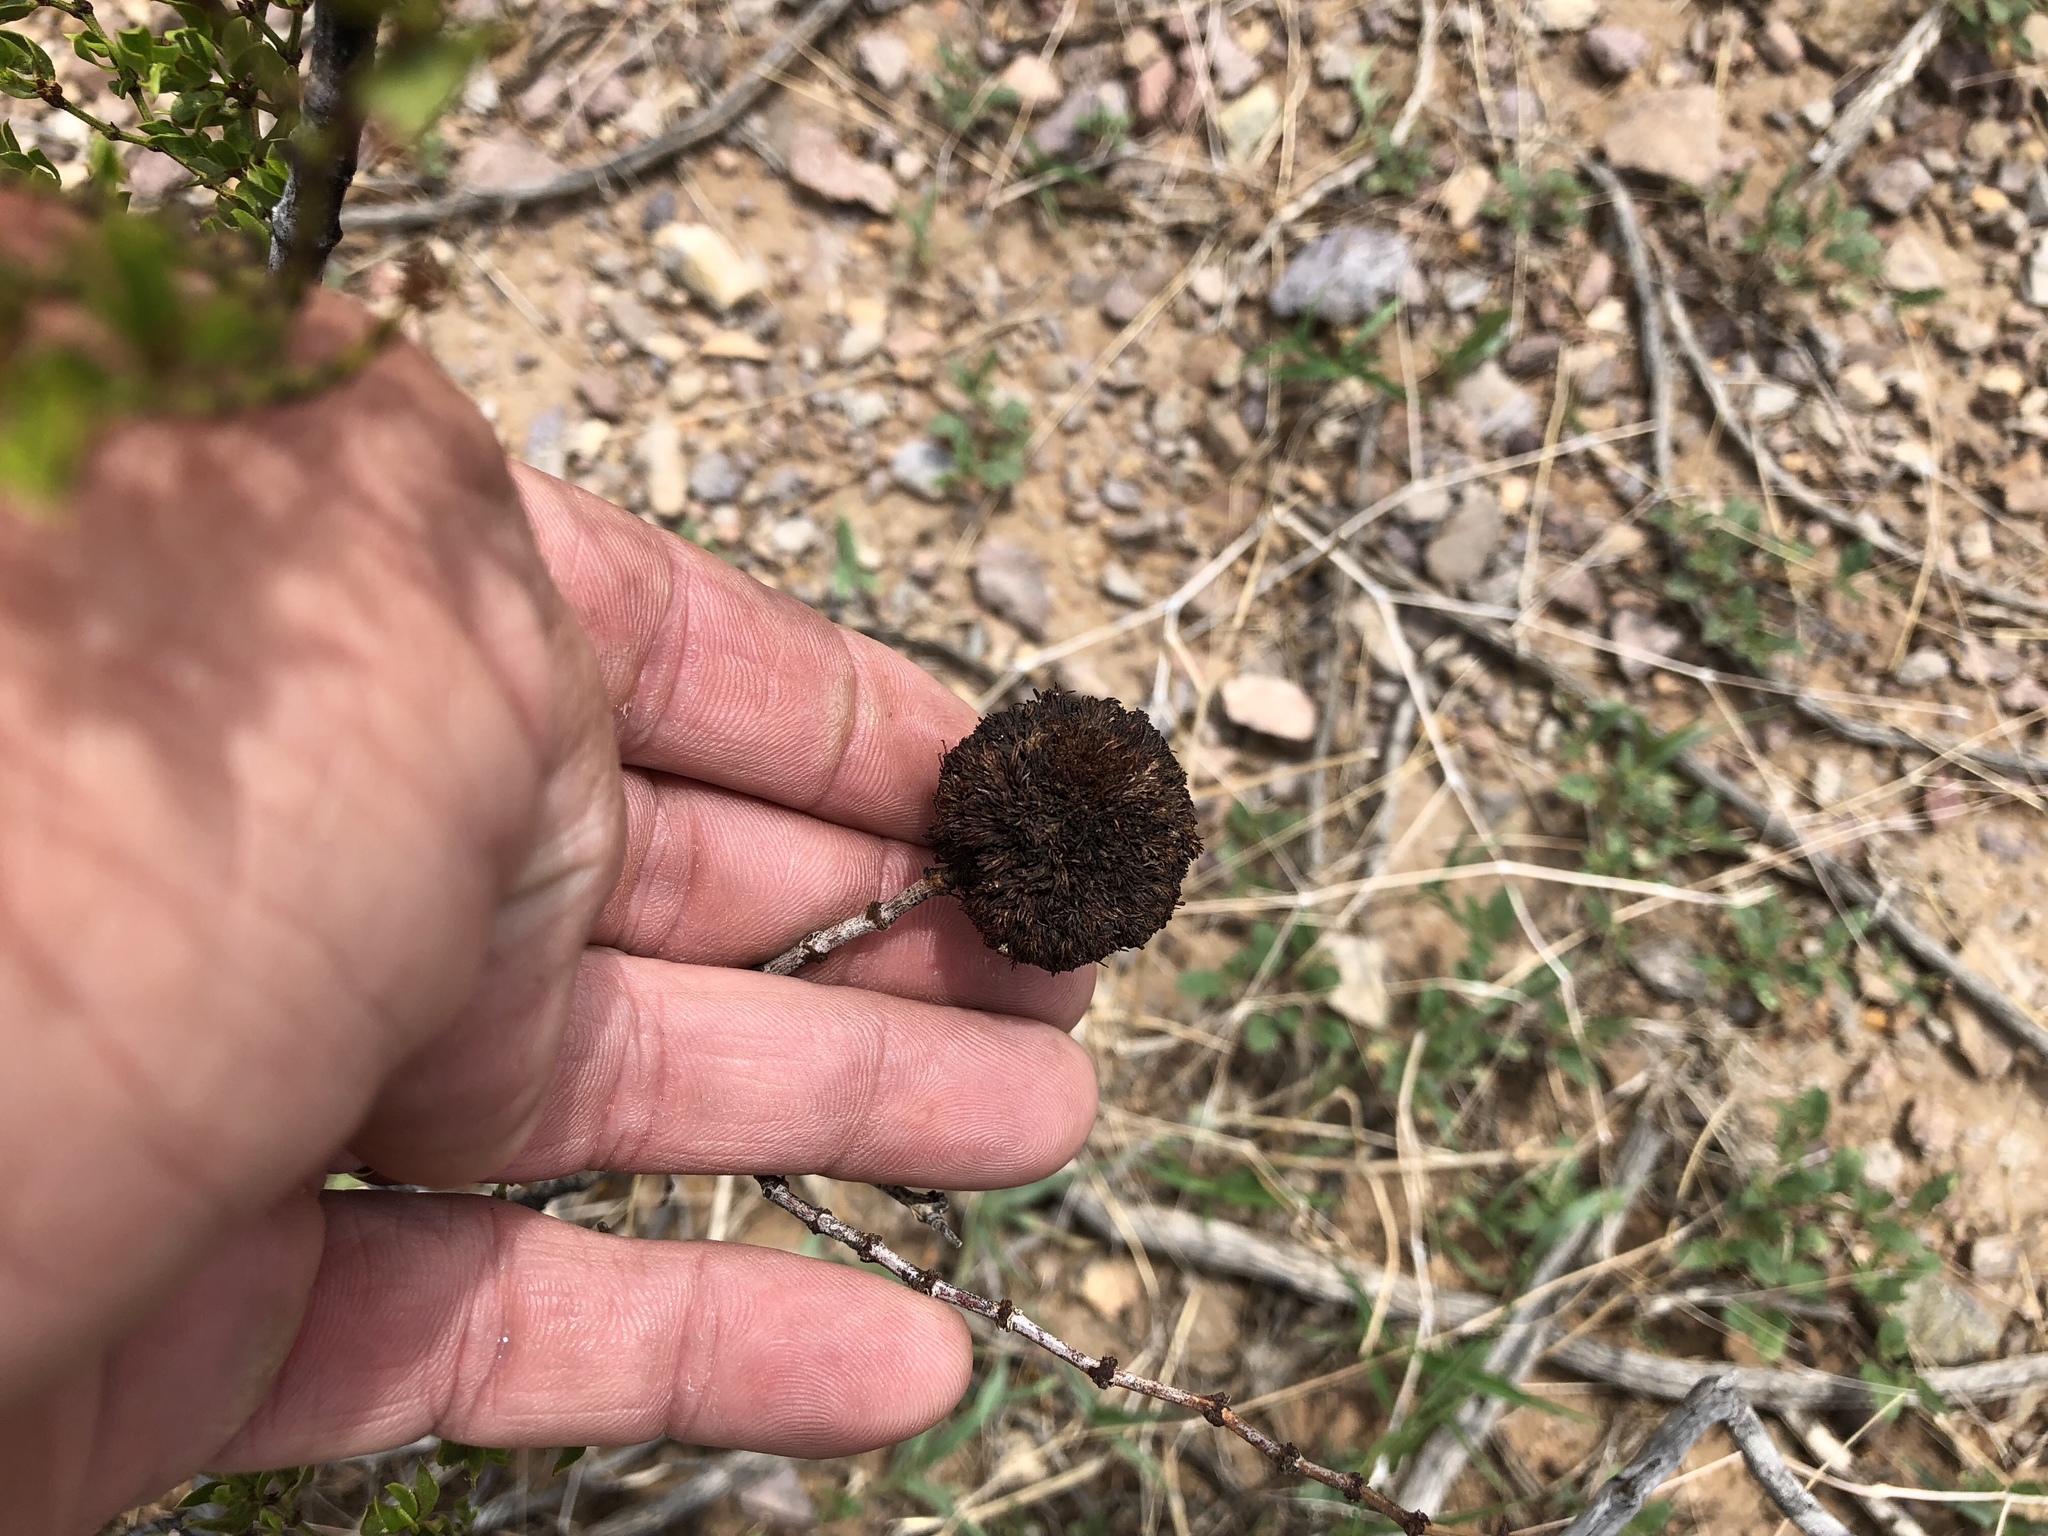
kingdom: Plantae
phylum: Tracheophyta
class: Magnoliopsida
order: Zygophyllales
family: Zygophyllaceae
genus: Larrea
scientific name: Larrea tridentata
